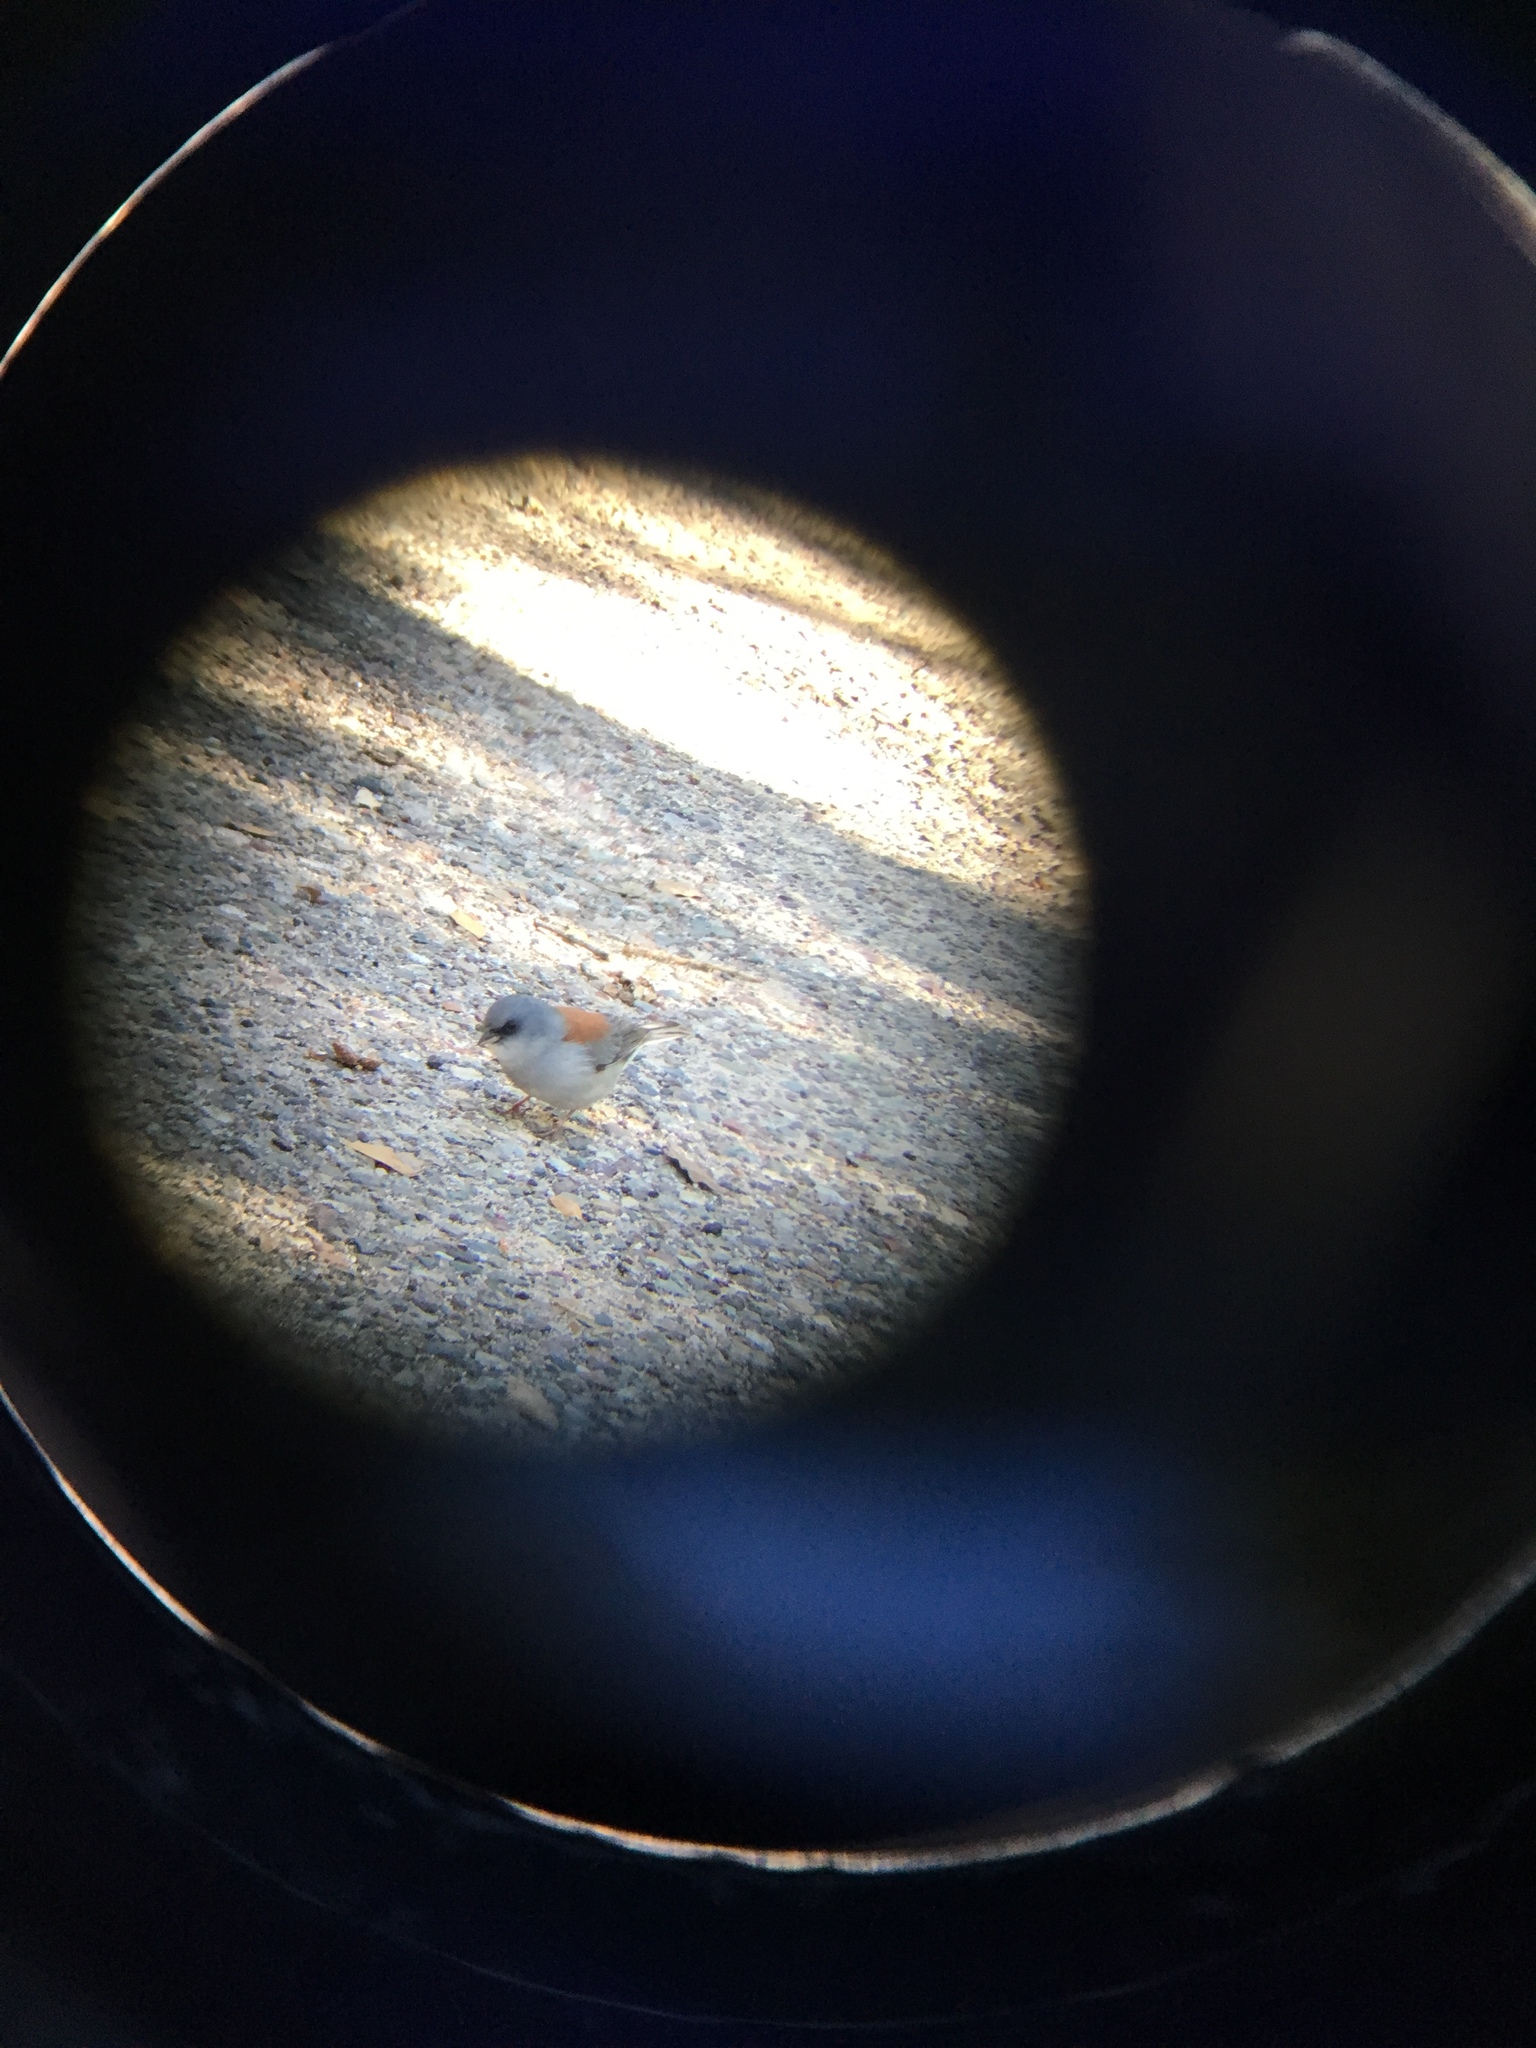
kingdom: Animalia
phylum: Chordata
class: Aves
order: Passeriformes
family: Passerellidae
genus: Junco
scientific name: Junco hyemalis
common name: Dark-eyed junco
